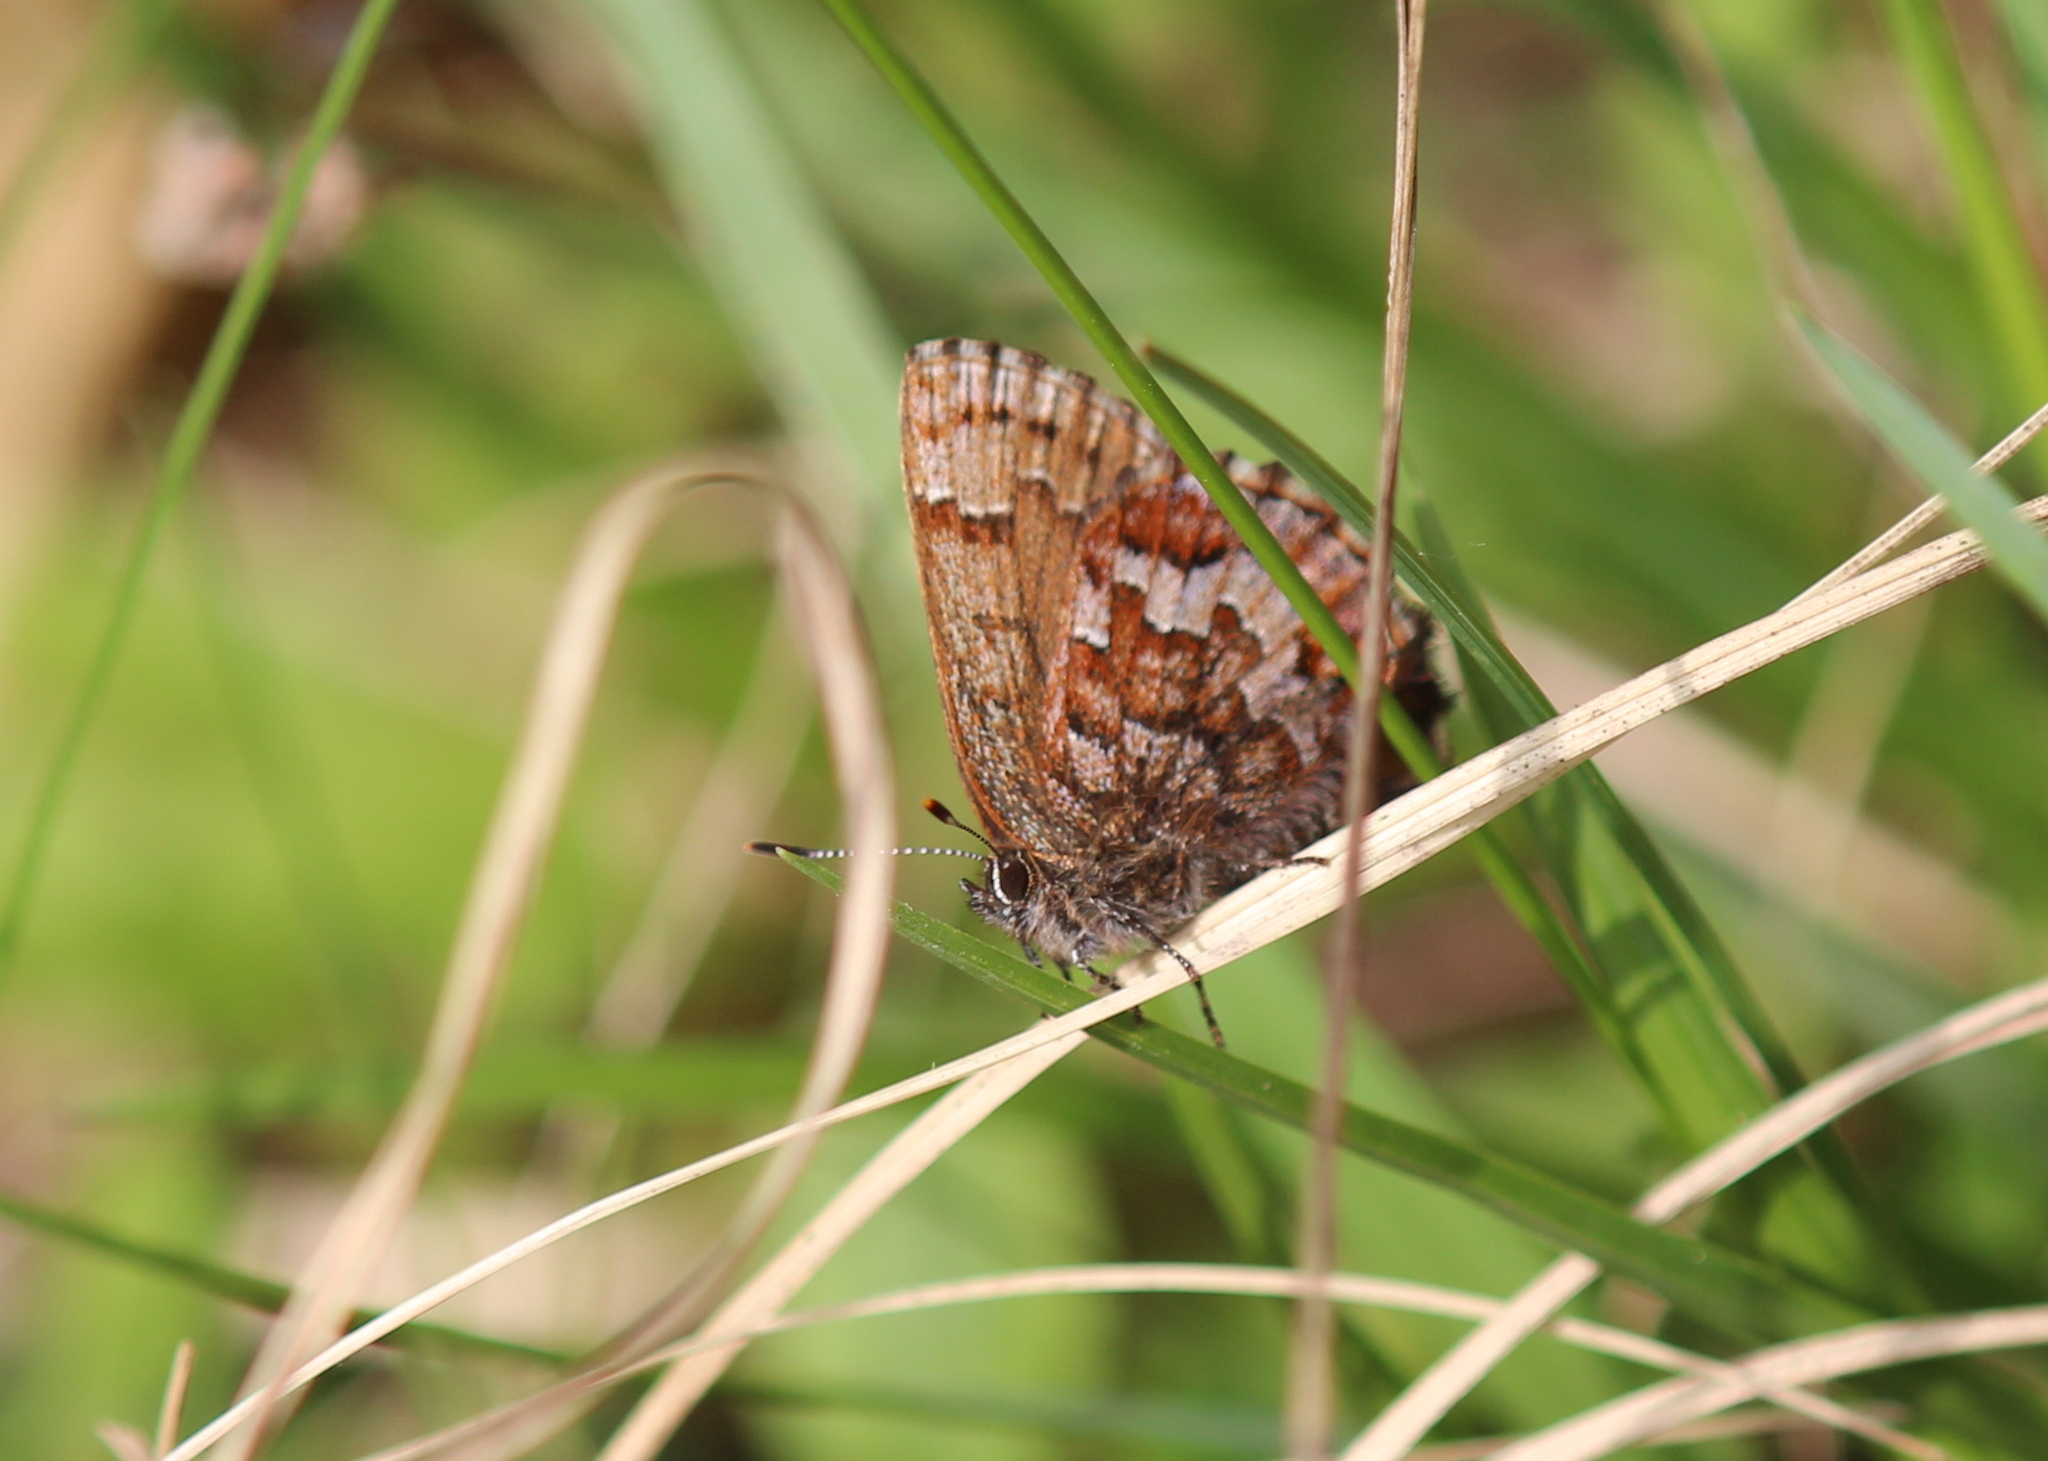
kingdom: Animalia
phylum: Arthropoda
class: Insecta
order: Lepidoptera
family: Lycaenidae
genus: Incisalia
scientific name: Incisalia niphon
